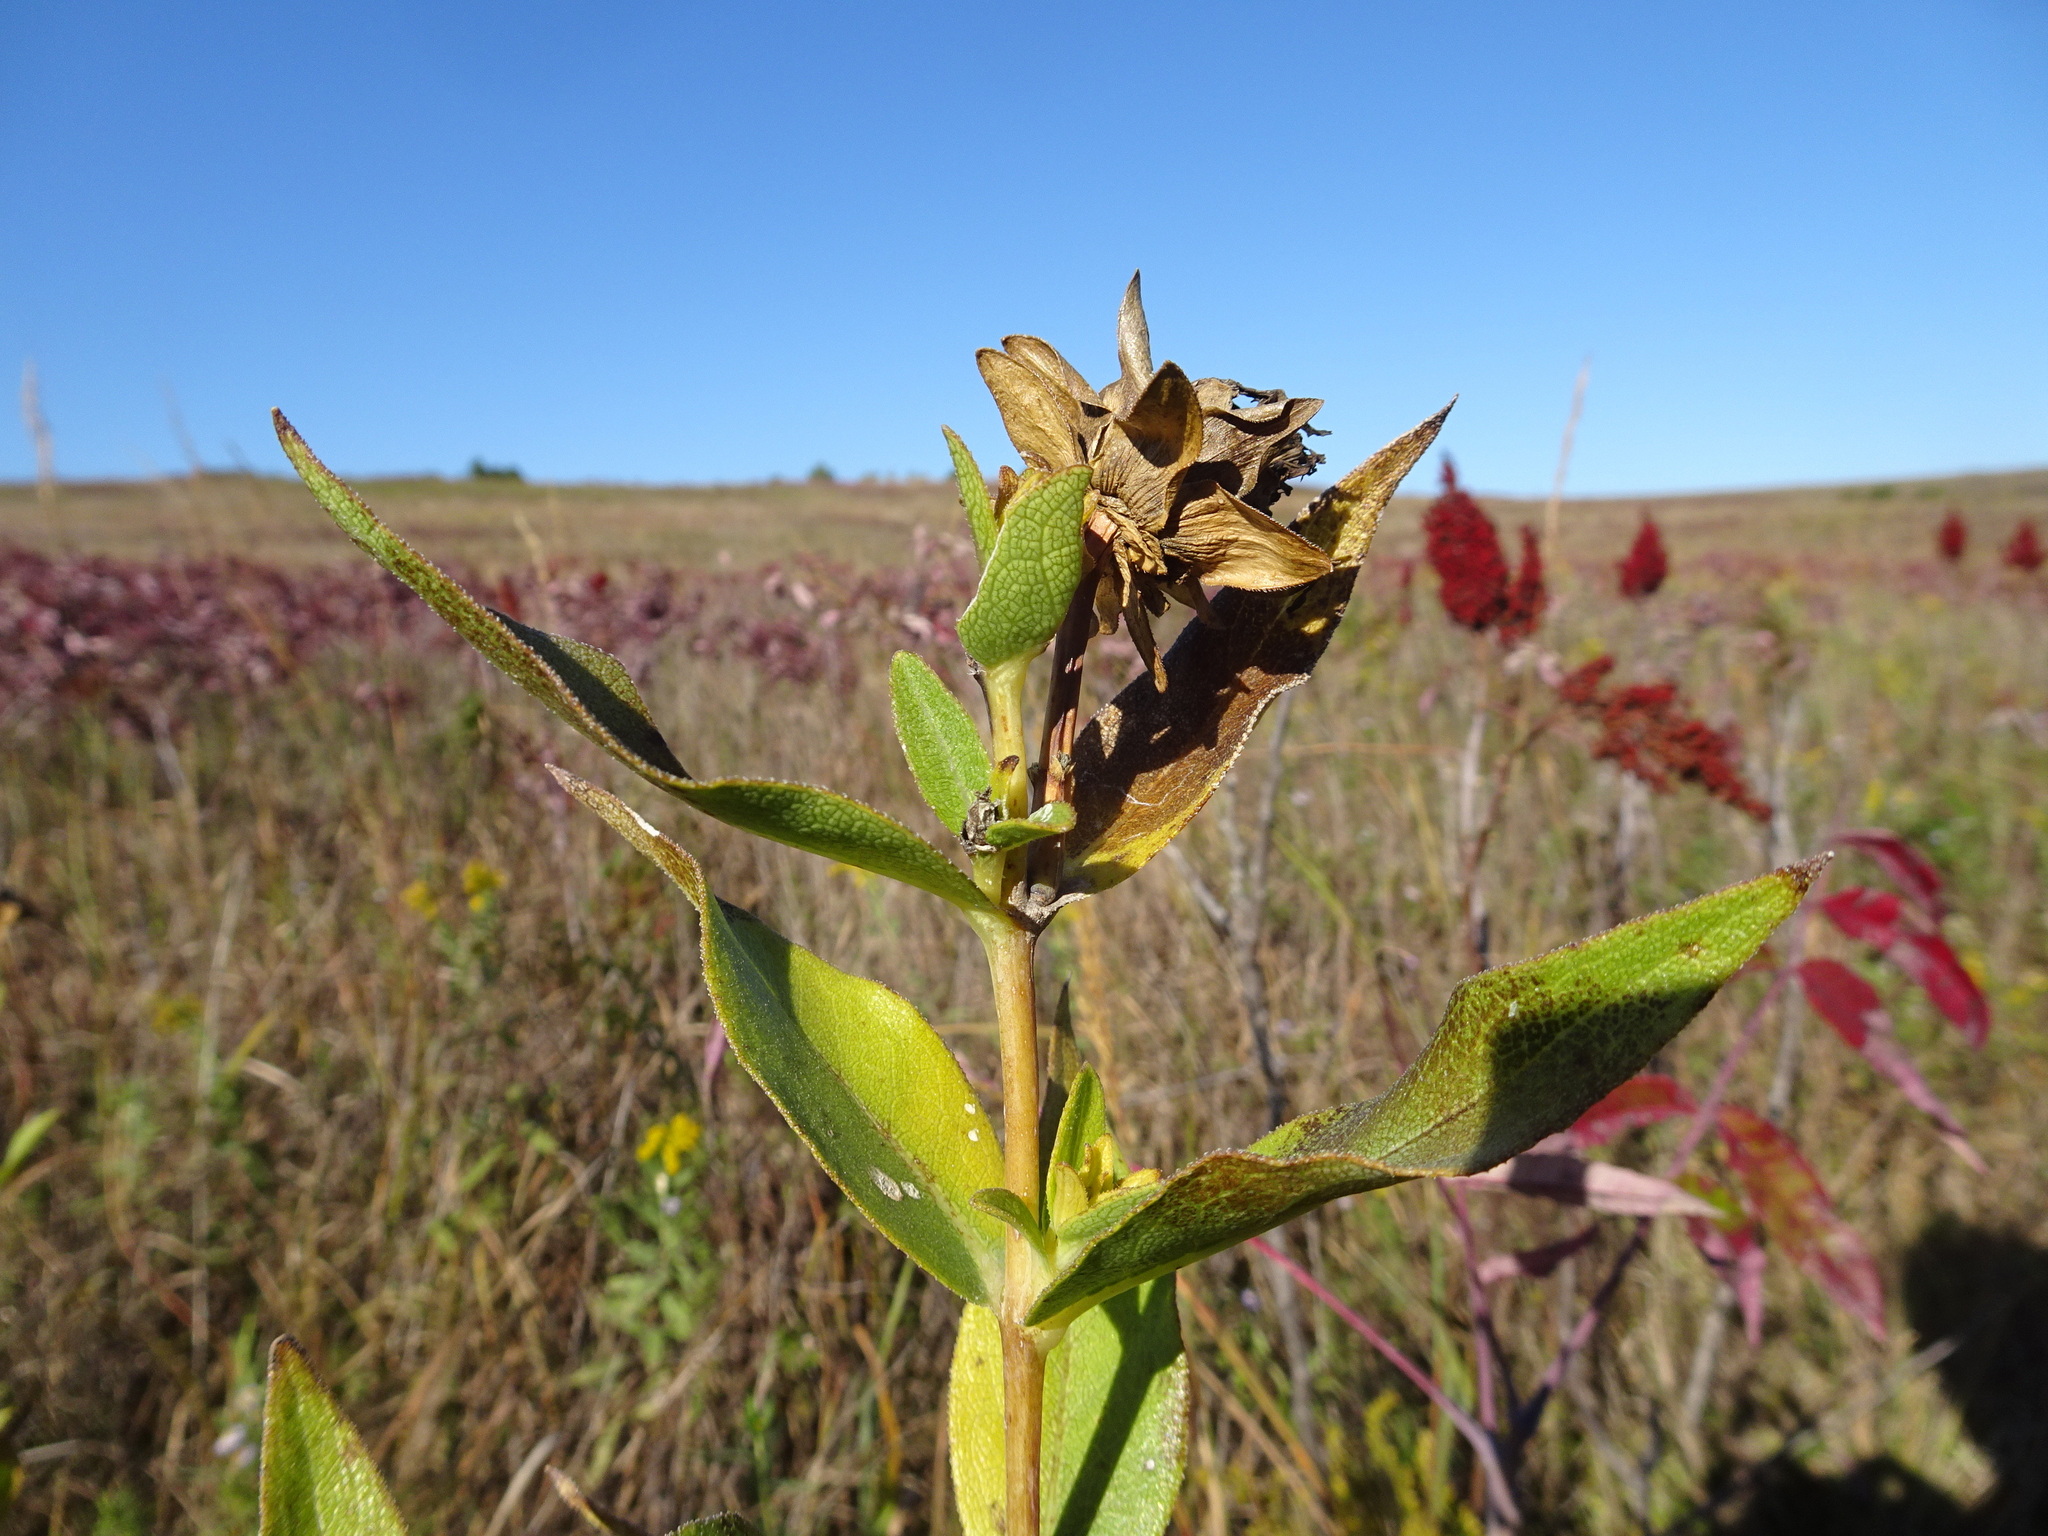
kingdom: Plantae
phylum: Tracheophyta
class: Magnoliopsida
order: Asterales
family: Asteraceae
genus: Silphium
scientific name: Silphium integrifolium
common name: Whole-leaf rosinweed
